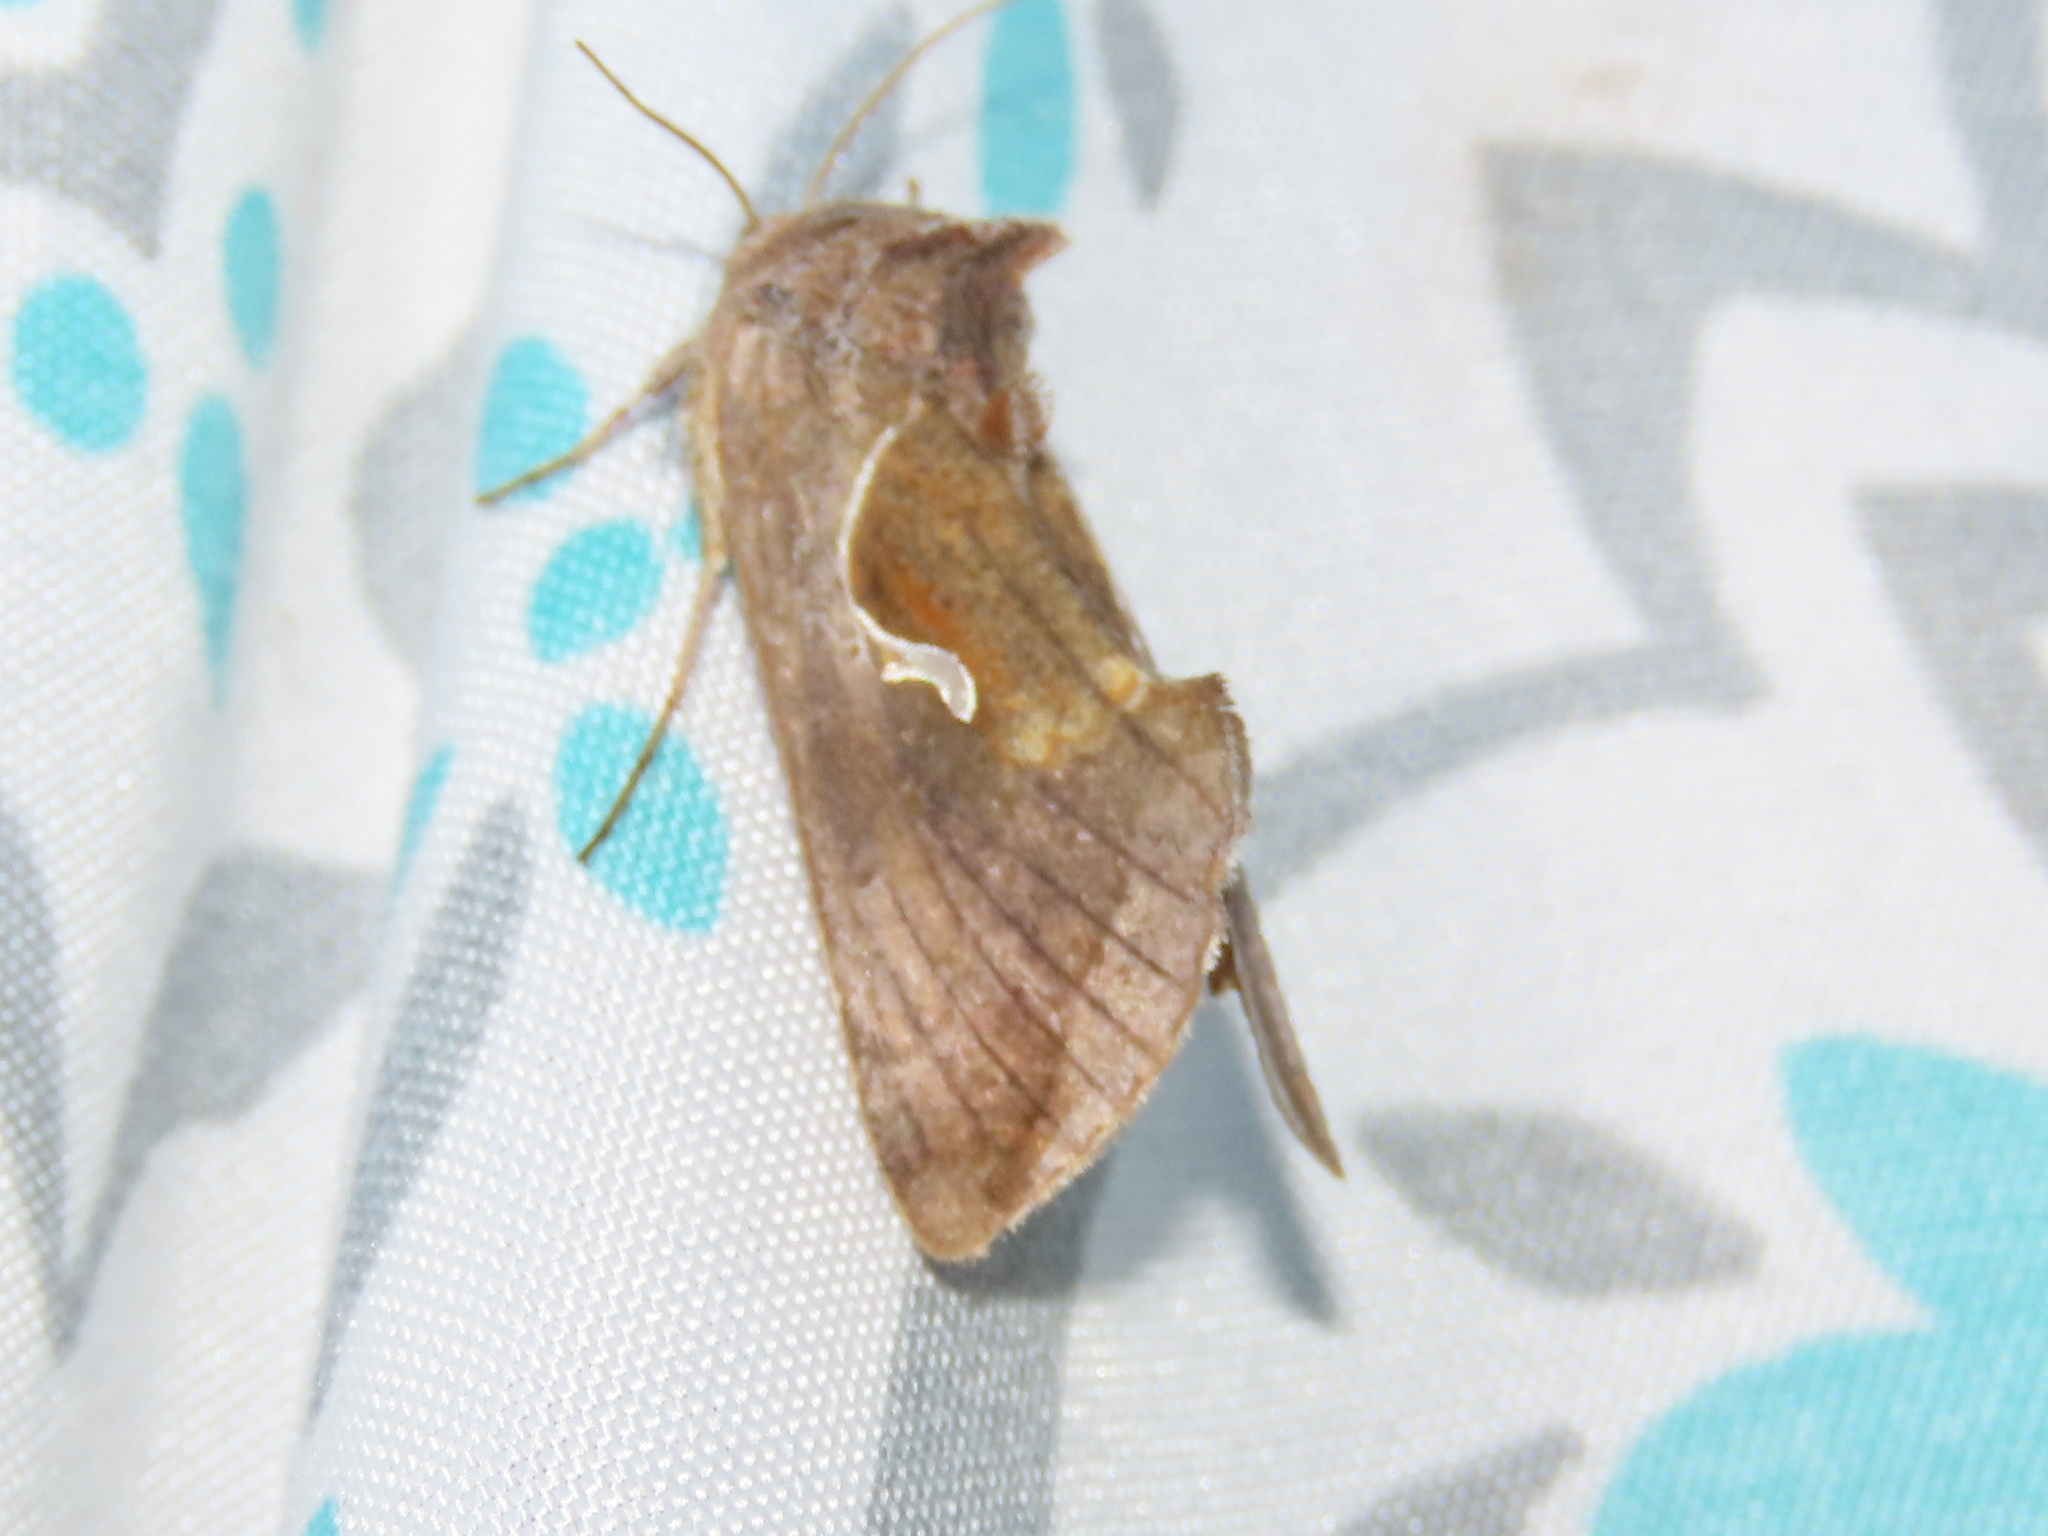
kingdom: Animalia
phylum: Arthropoda
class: Insecta
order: Lepidoptera
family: Noctuidae
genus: Anagrapha
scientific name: Anagrapha falcifera
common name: Celery looper
